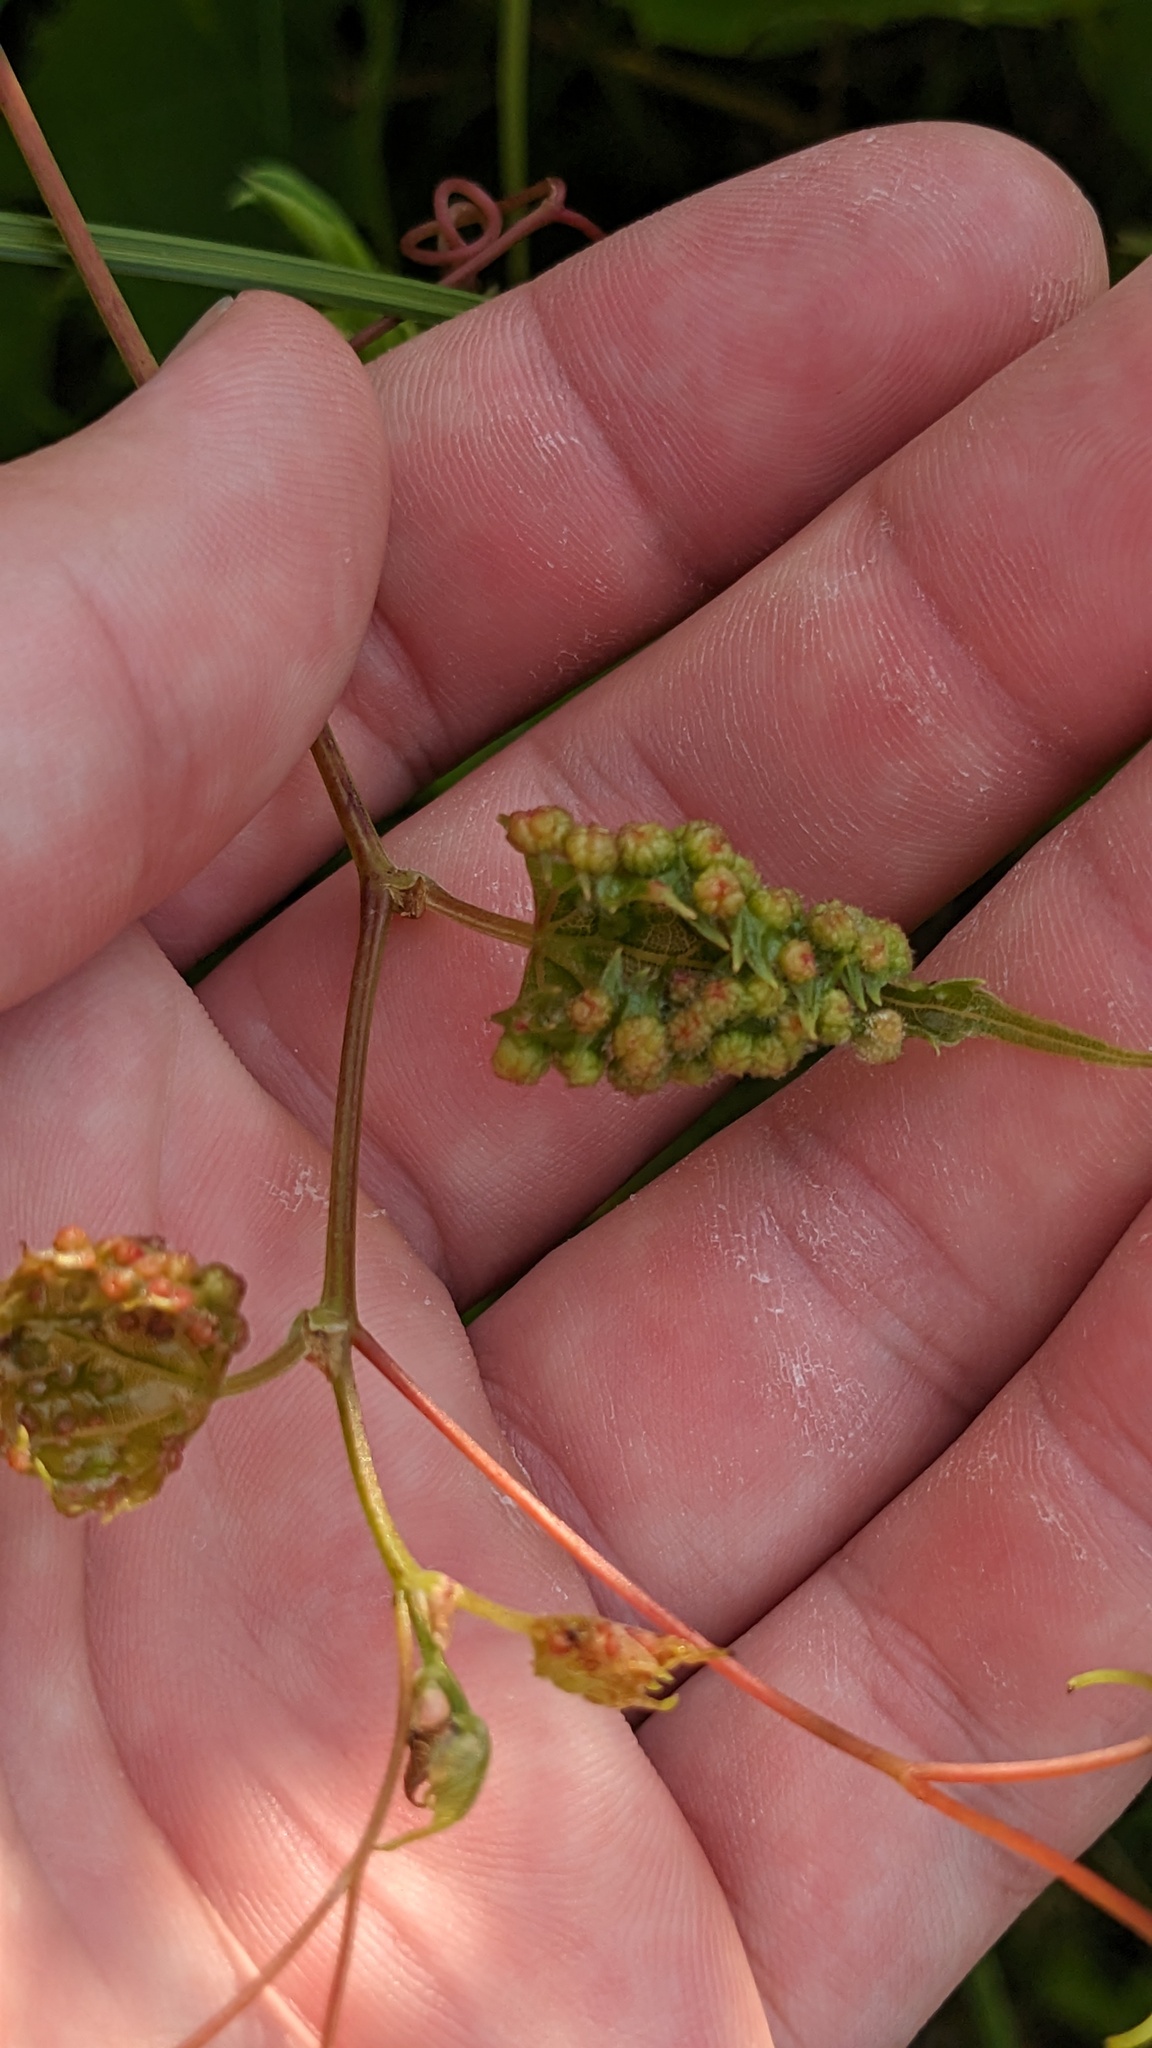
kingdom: Animalia
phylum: Arthropoda
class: Insecta
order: Hemiptera
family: Phylloxeridae
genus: Daktulosphaira
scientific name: Daktulosphaira vitifoliae
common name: Grape phylloxera
